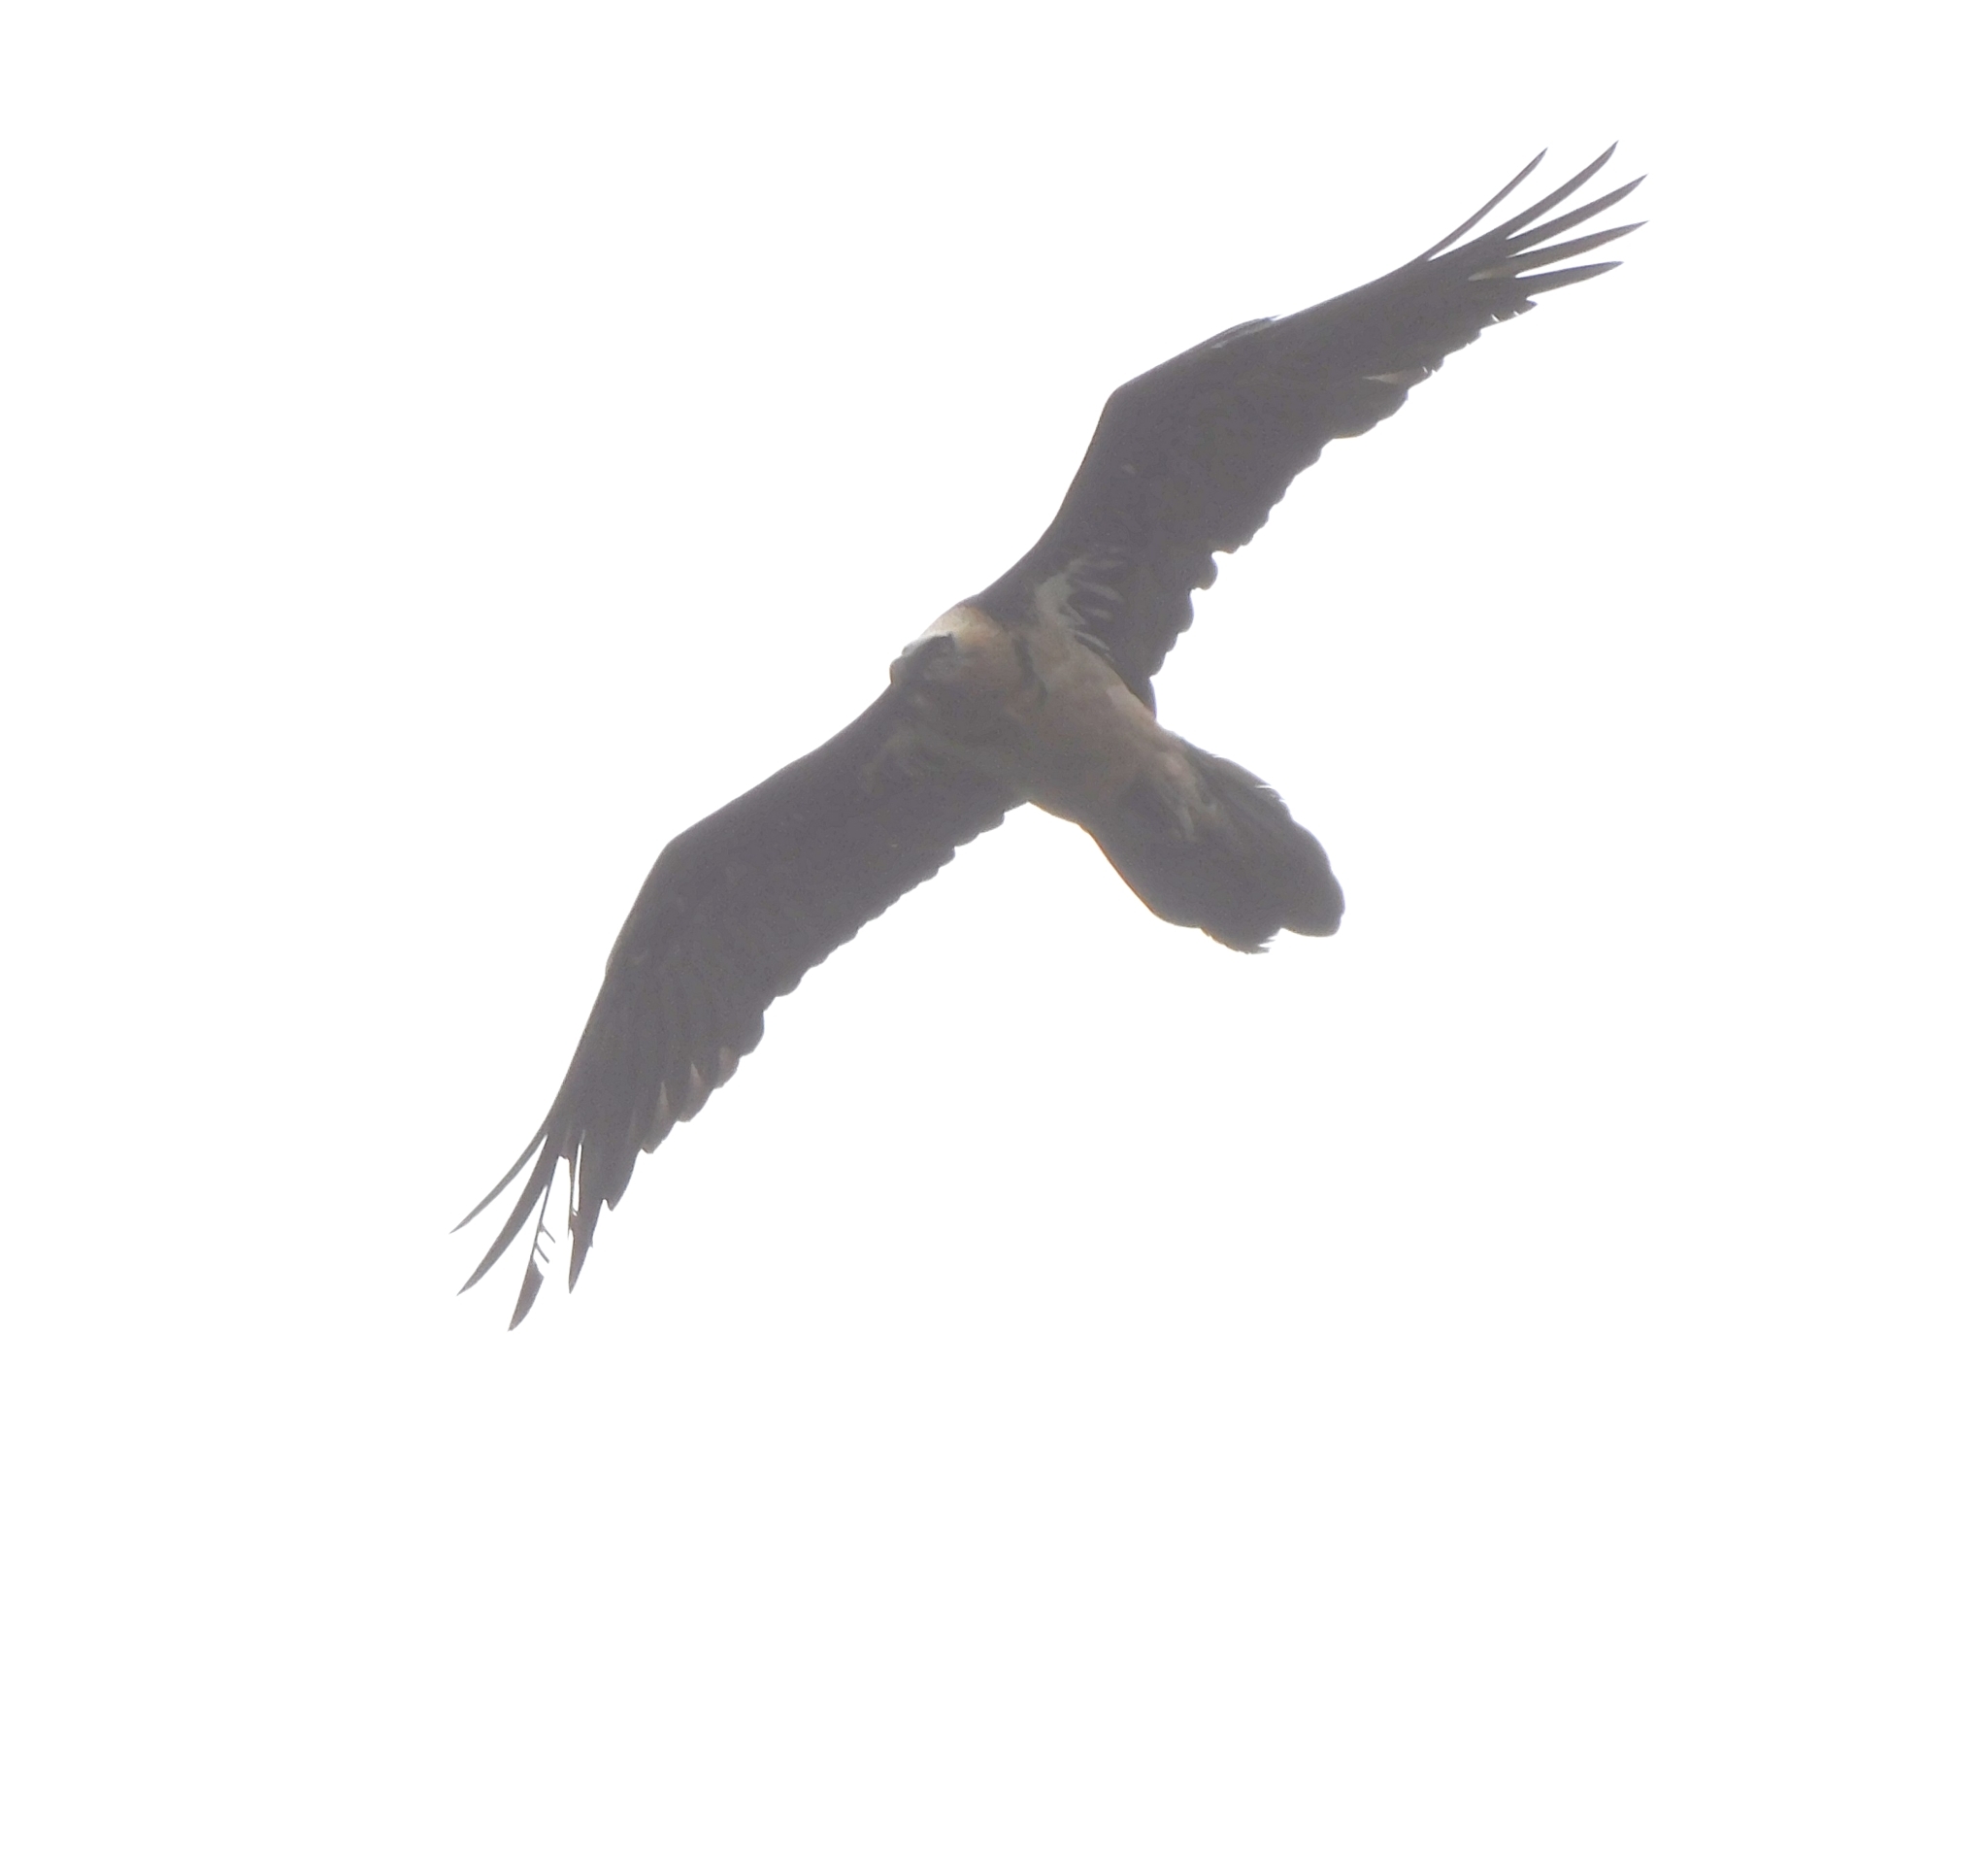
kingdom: Animalia
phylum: Chordata
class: Aves
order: Accipitriformes
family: Accipitridae
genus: Gypaetus
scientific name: Gypaetus barbatus
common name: Bearded vulture
